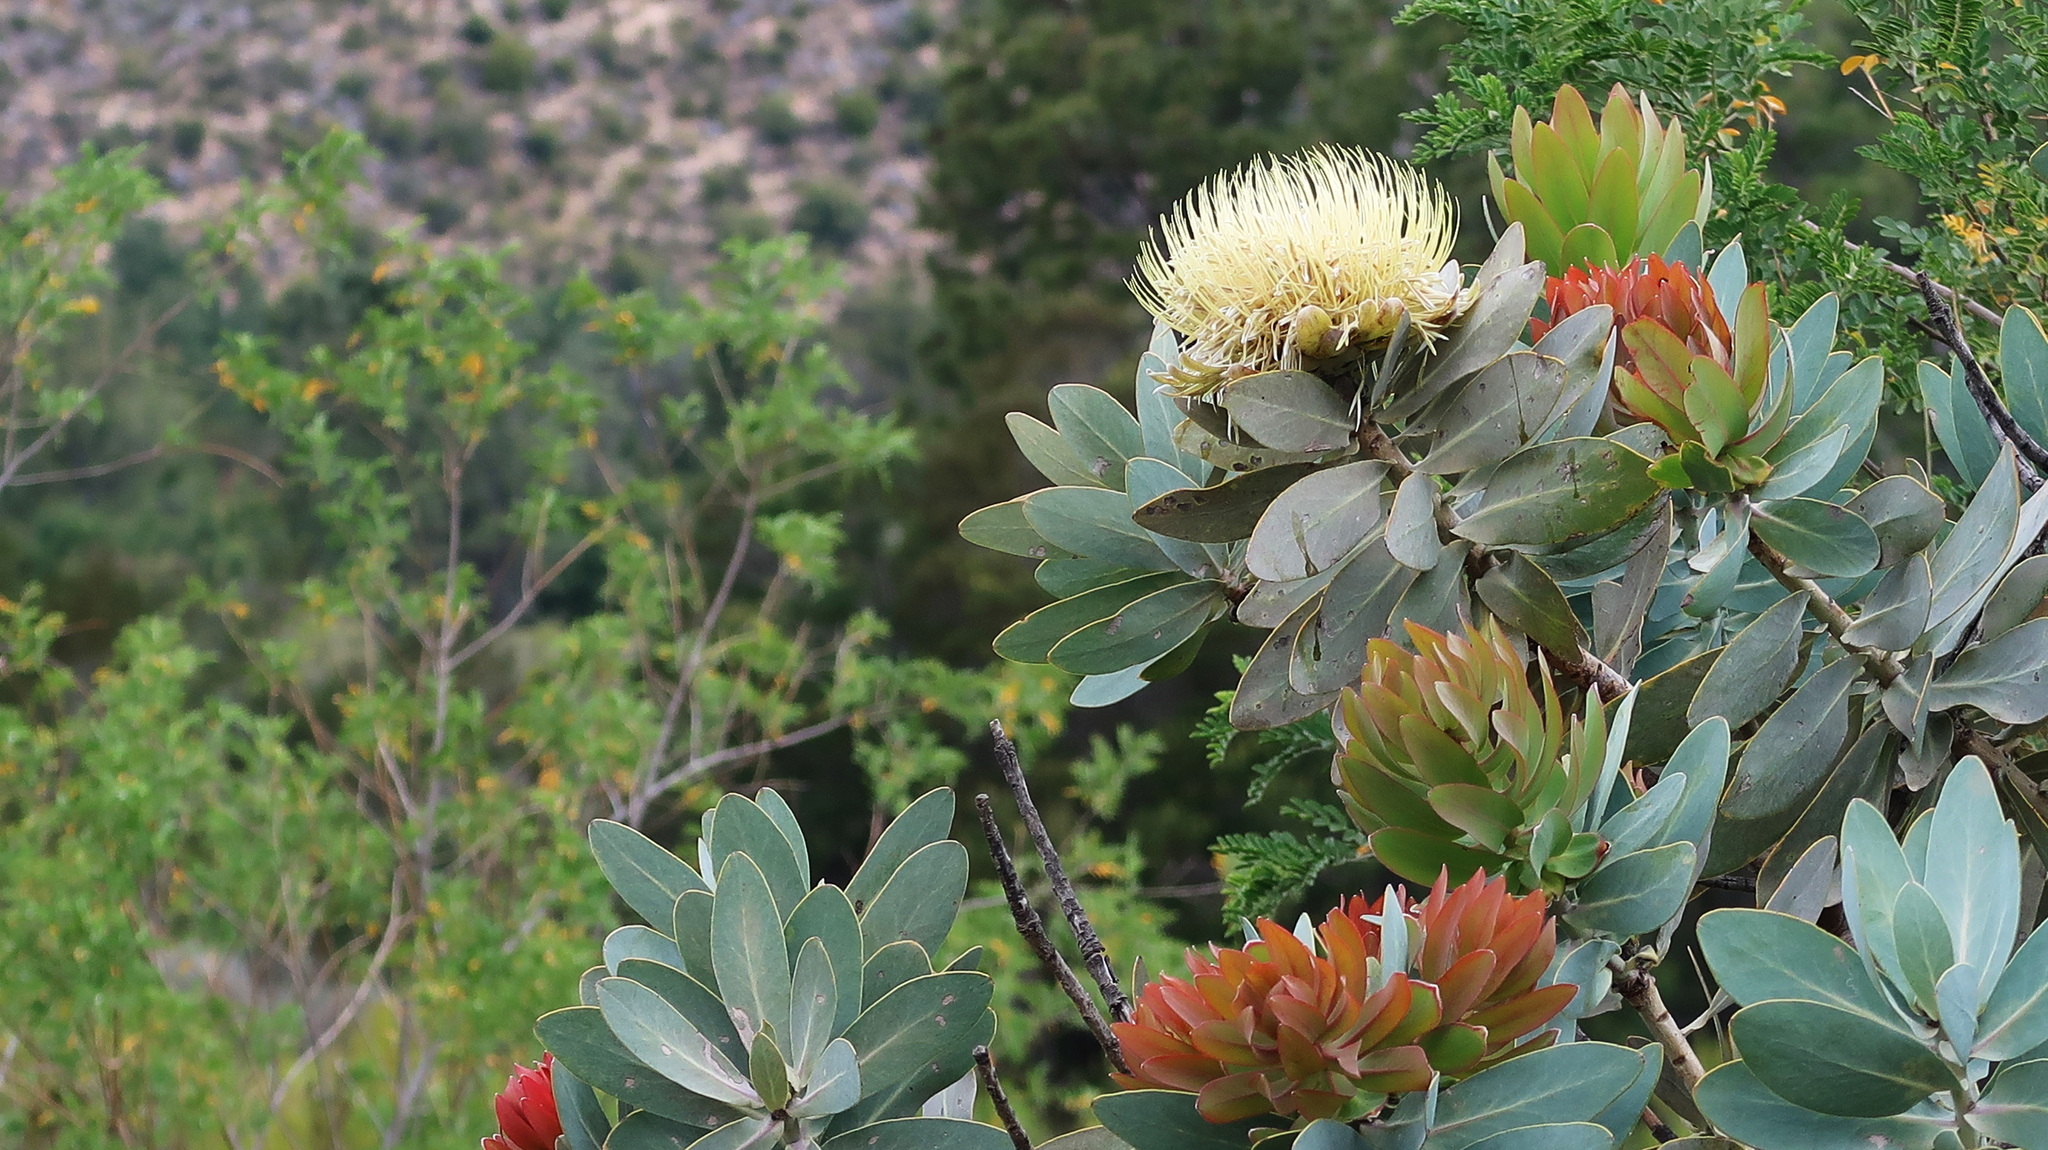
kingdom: Plantae
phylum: Tracheophyta
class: Magnoliopsida
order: Proteales
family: Proteaceae
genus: Protea
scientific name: Protea nitida
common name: Tree protea
